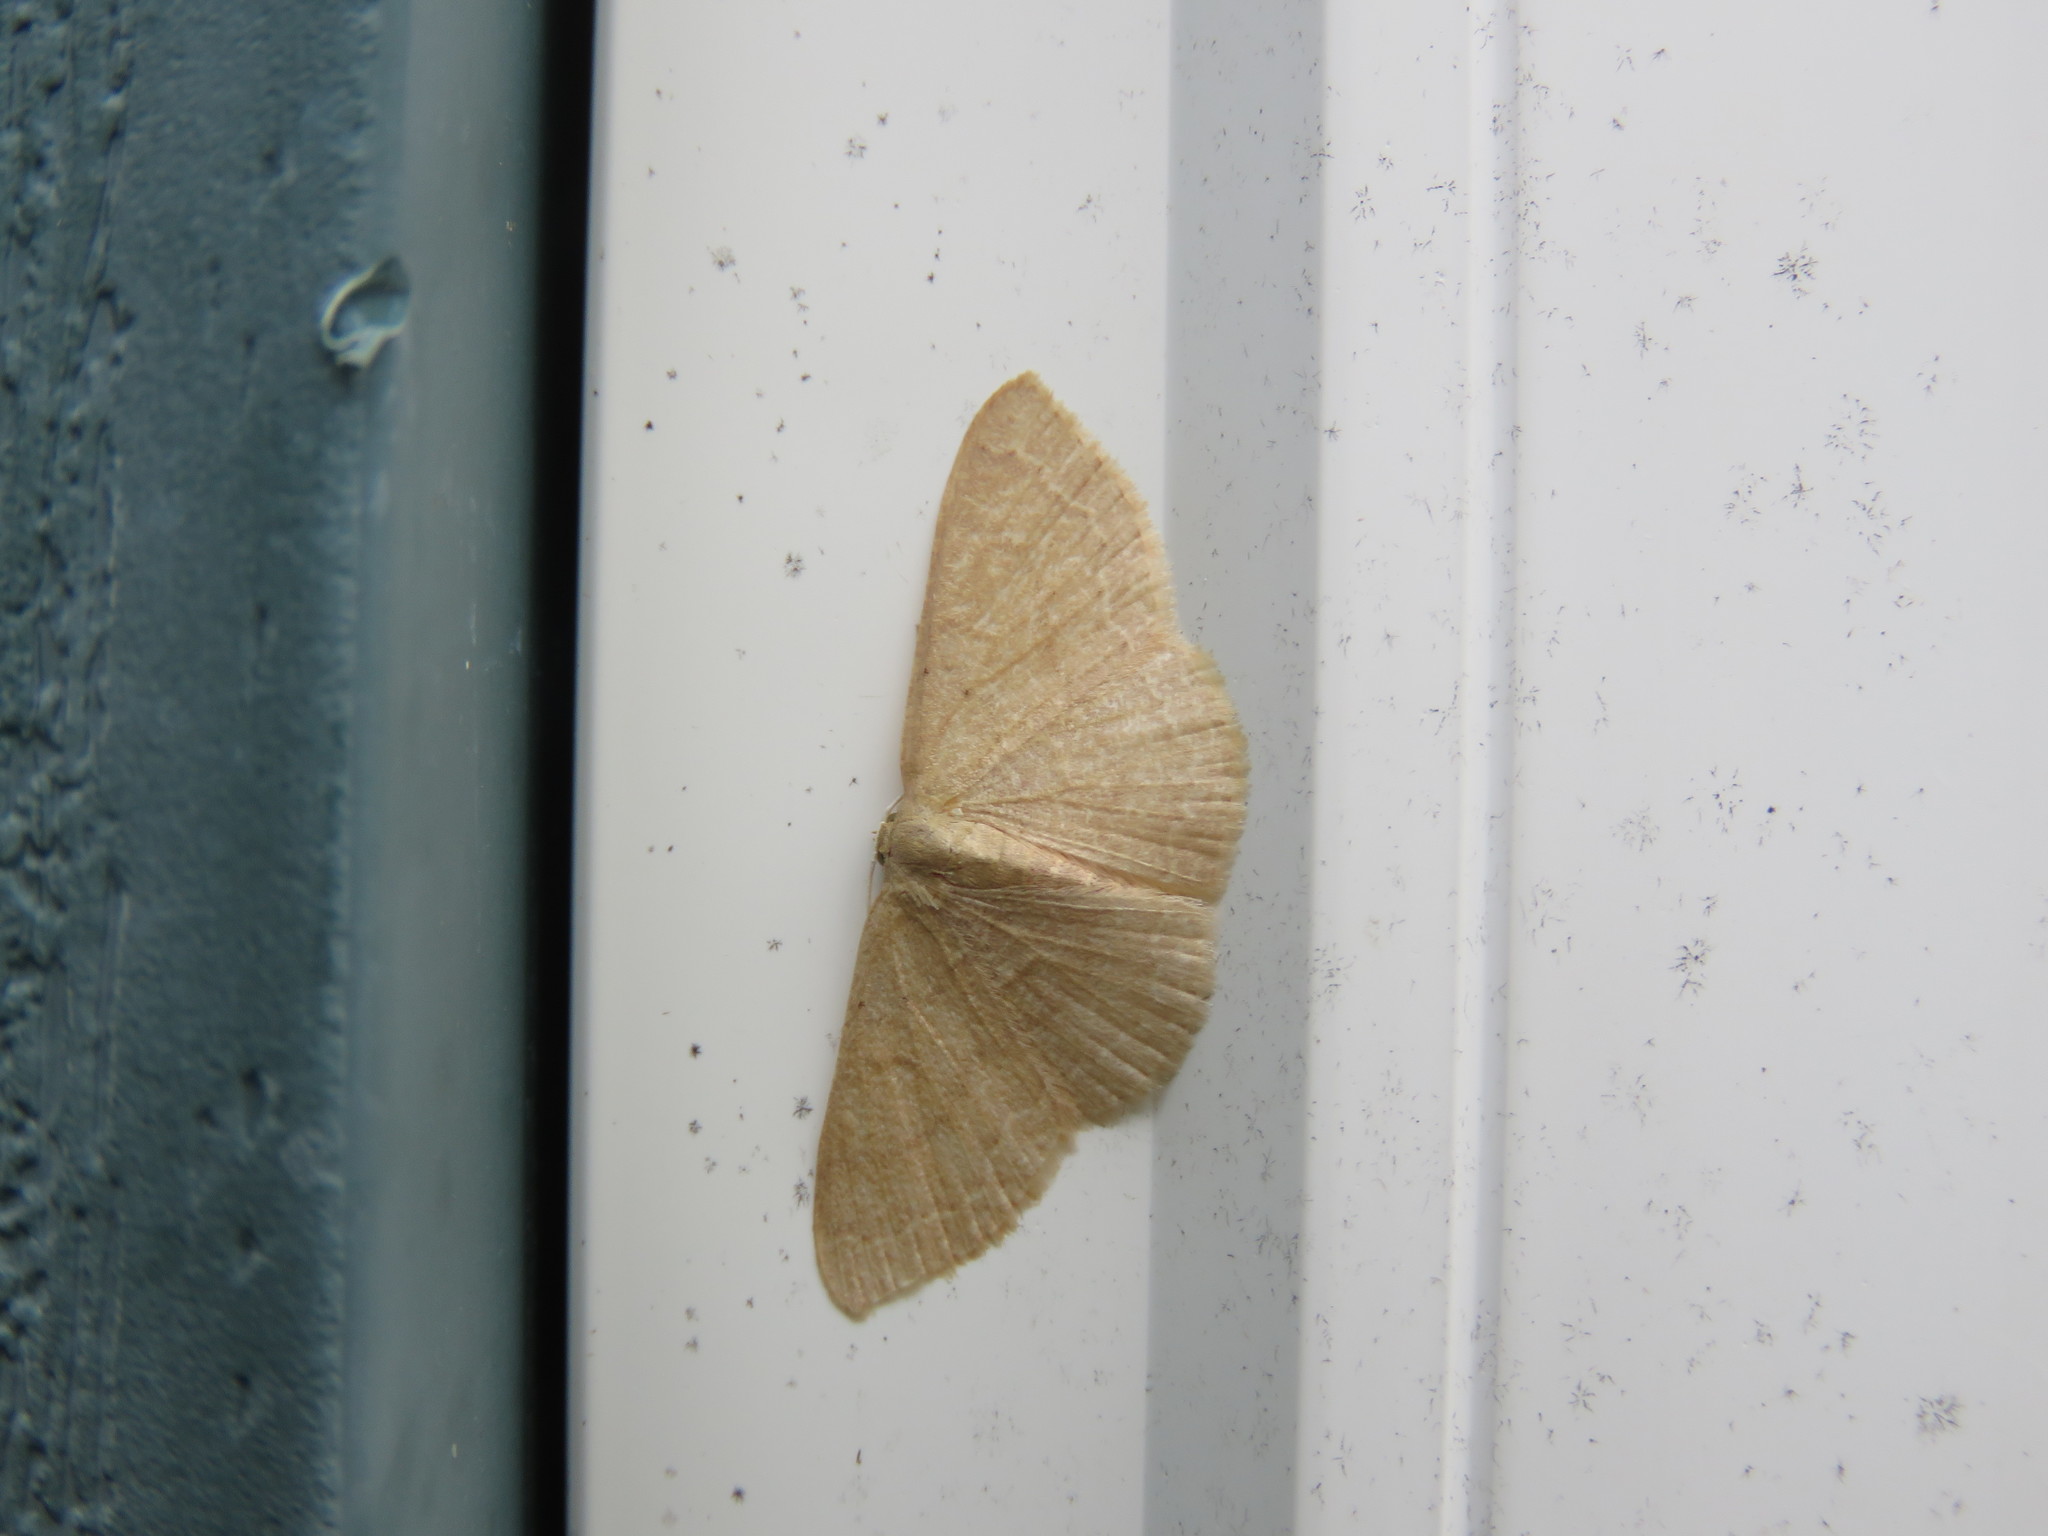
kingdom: Animalia
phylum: Arthropoda
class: Insecta
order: Lepidoptera
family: Geometridae
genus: Pleuroprucha
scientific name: Pleuroprucha insulsaria
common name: Common tan wave
